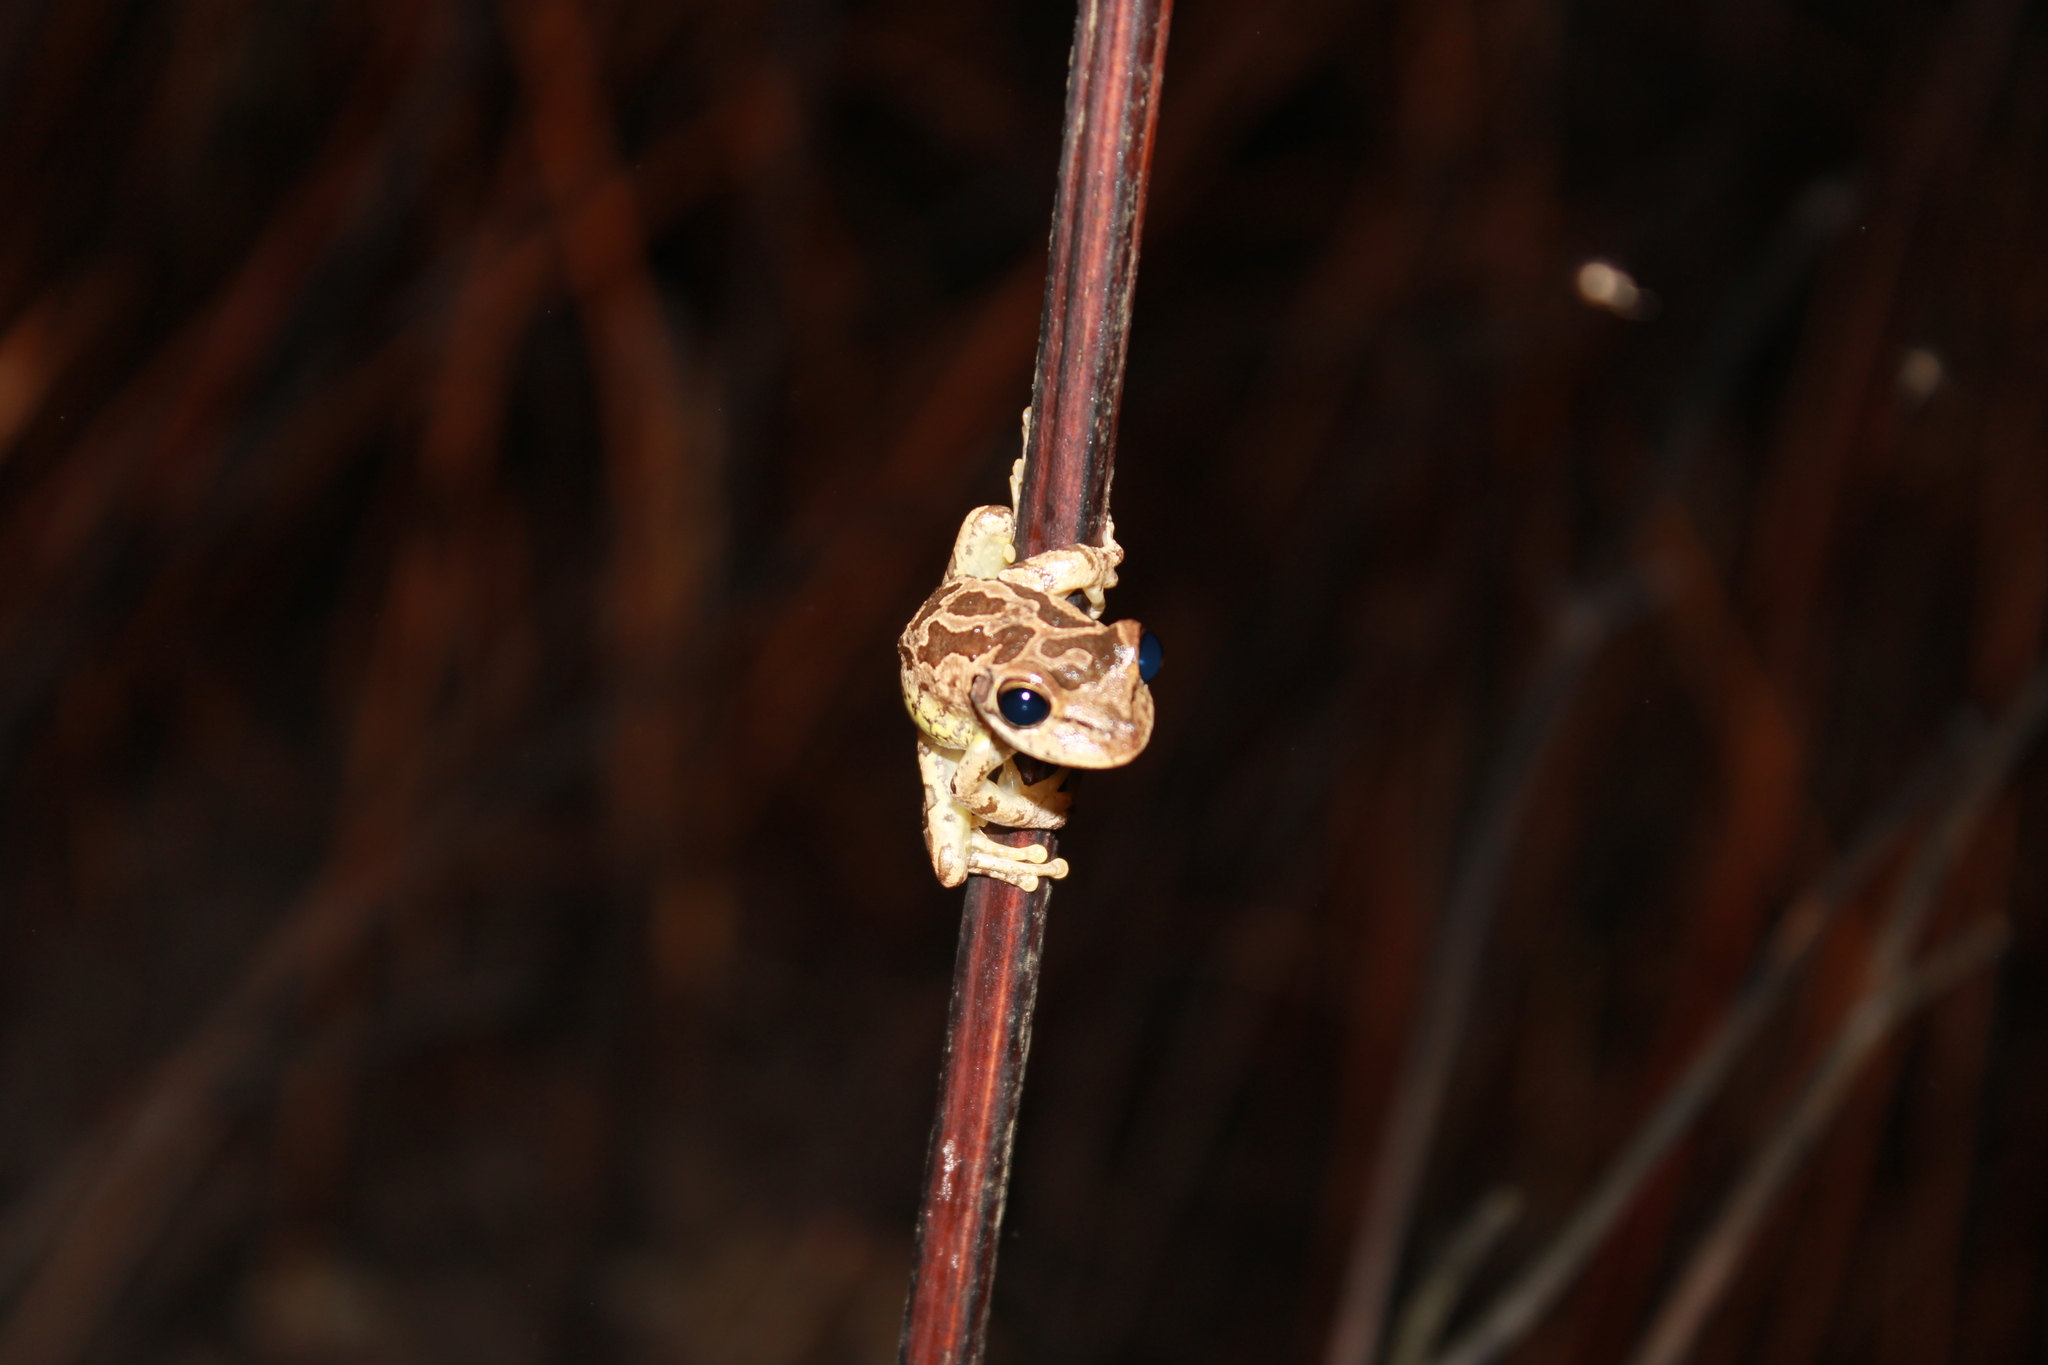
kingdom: Animalia
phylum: Chordata
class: Amphibia
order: Anura
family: Hylidae
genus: Osteopilus
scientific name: Osteopilus septentrionalis
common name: Cuban treefrog
